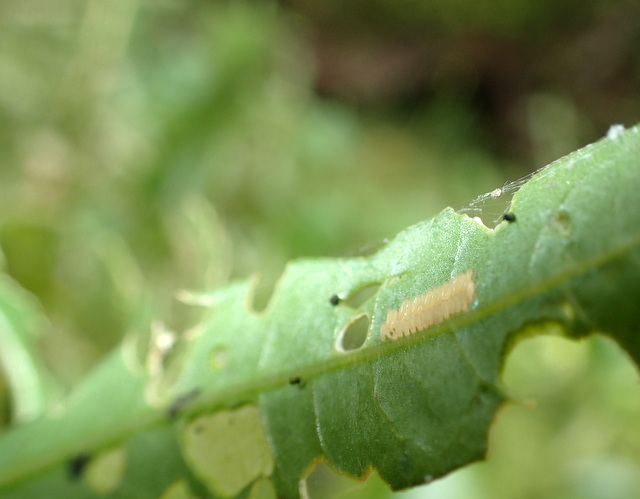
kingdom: Animalia
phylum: Arthropoda
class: Insecta
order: Coleoptera
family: Chrysomelidae
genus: Agasicles
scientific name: Agasicles hygrophila
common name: Alligatorweed flea beetle
